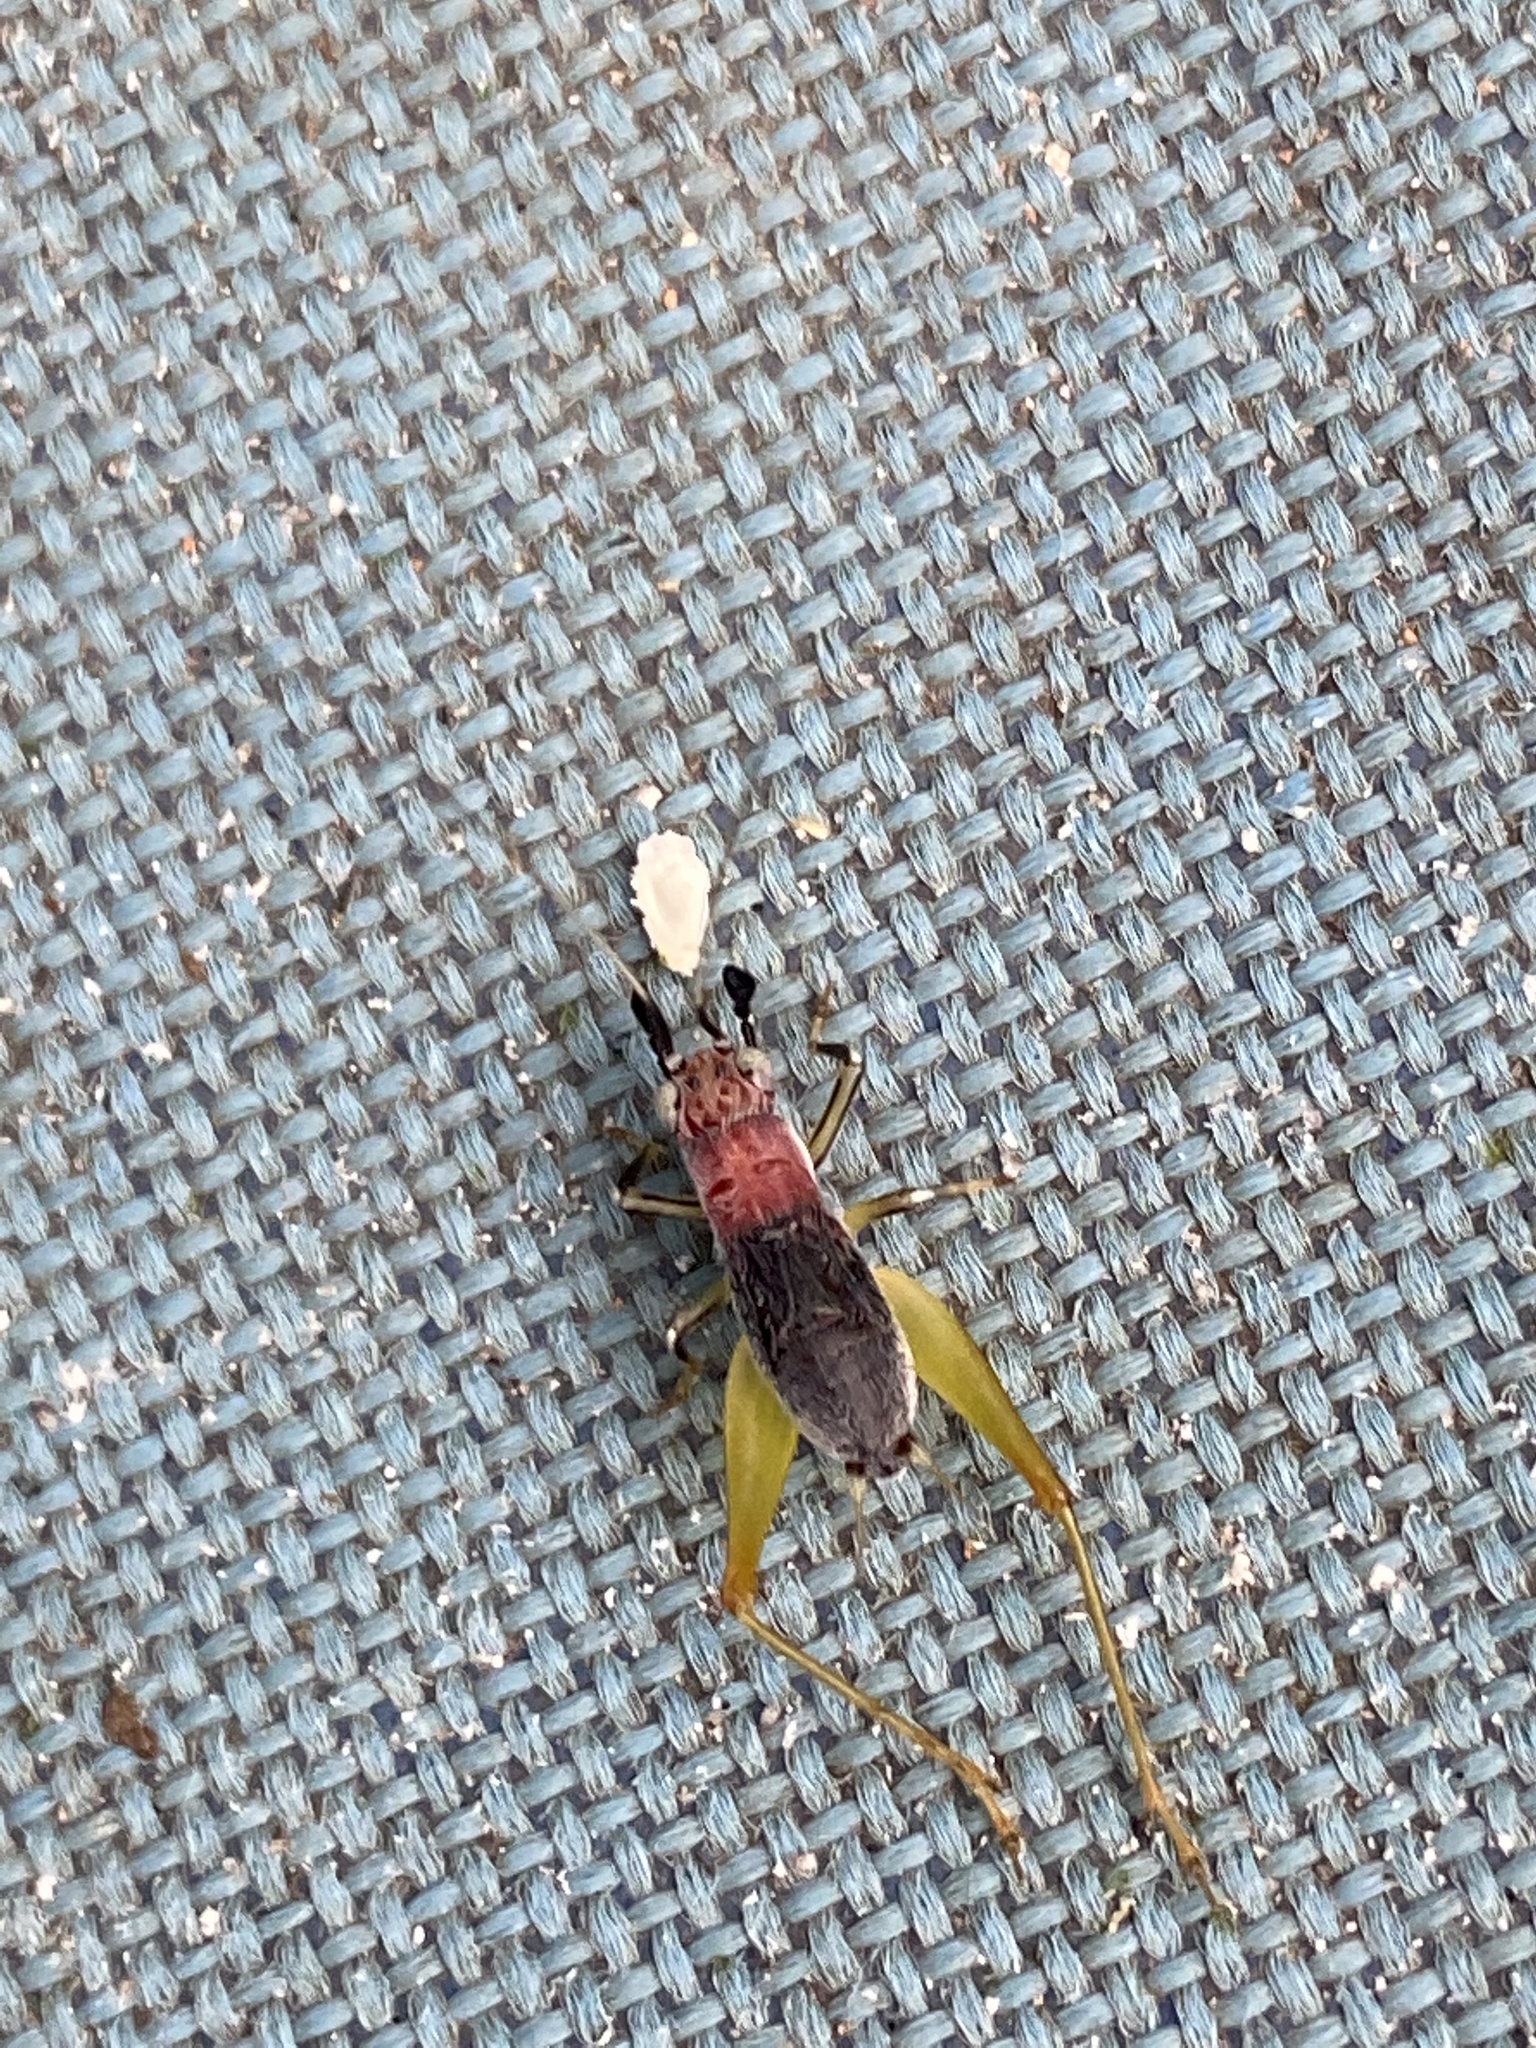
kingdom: Animalia
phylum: Arthropoda
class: Insecta
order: Orthoptera
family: Trigonidiidae
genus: Phyllopalpus
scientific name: Phyllopalpus pulchellus
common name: Handsome trig
